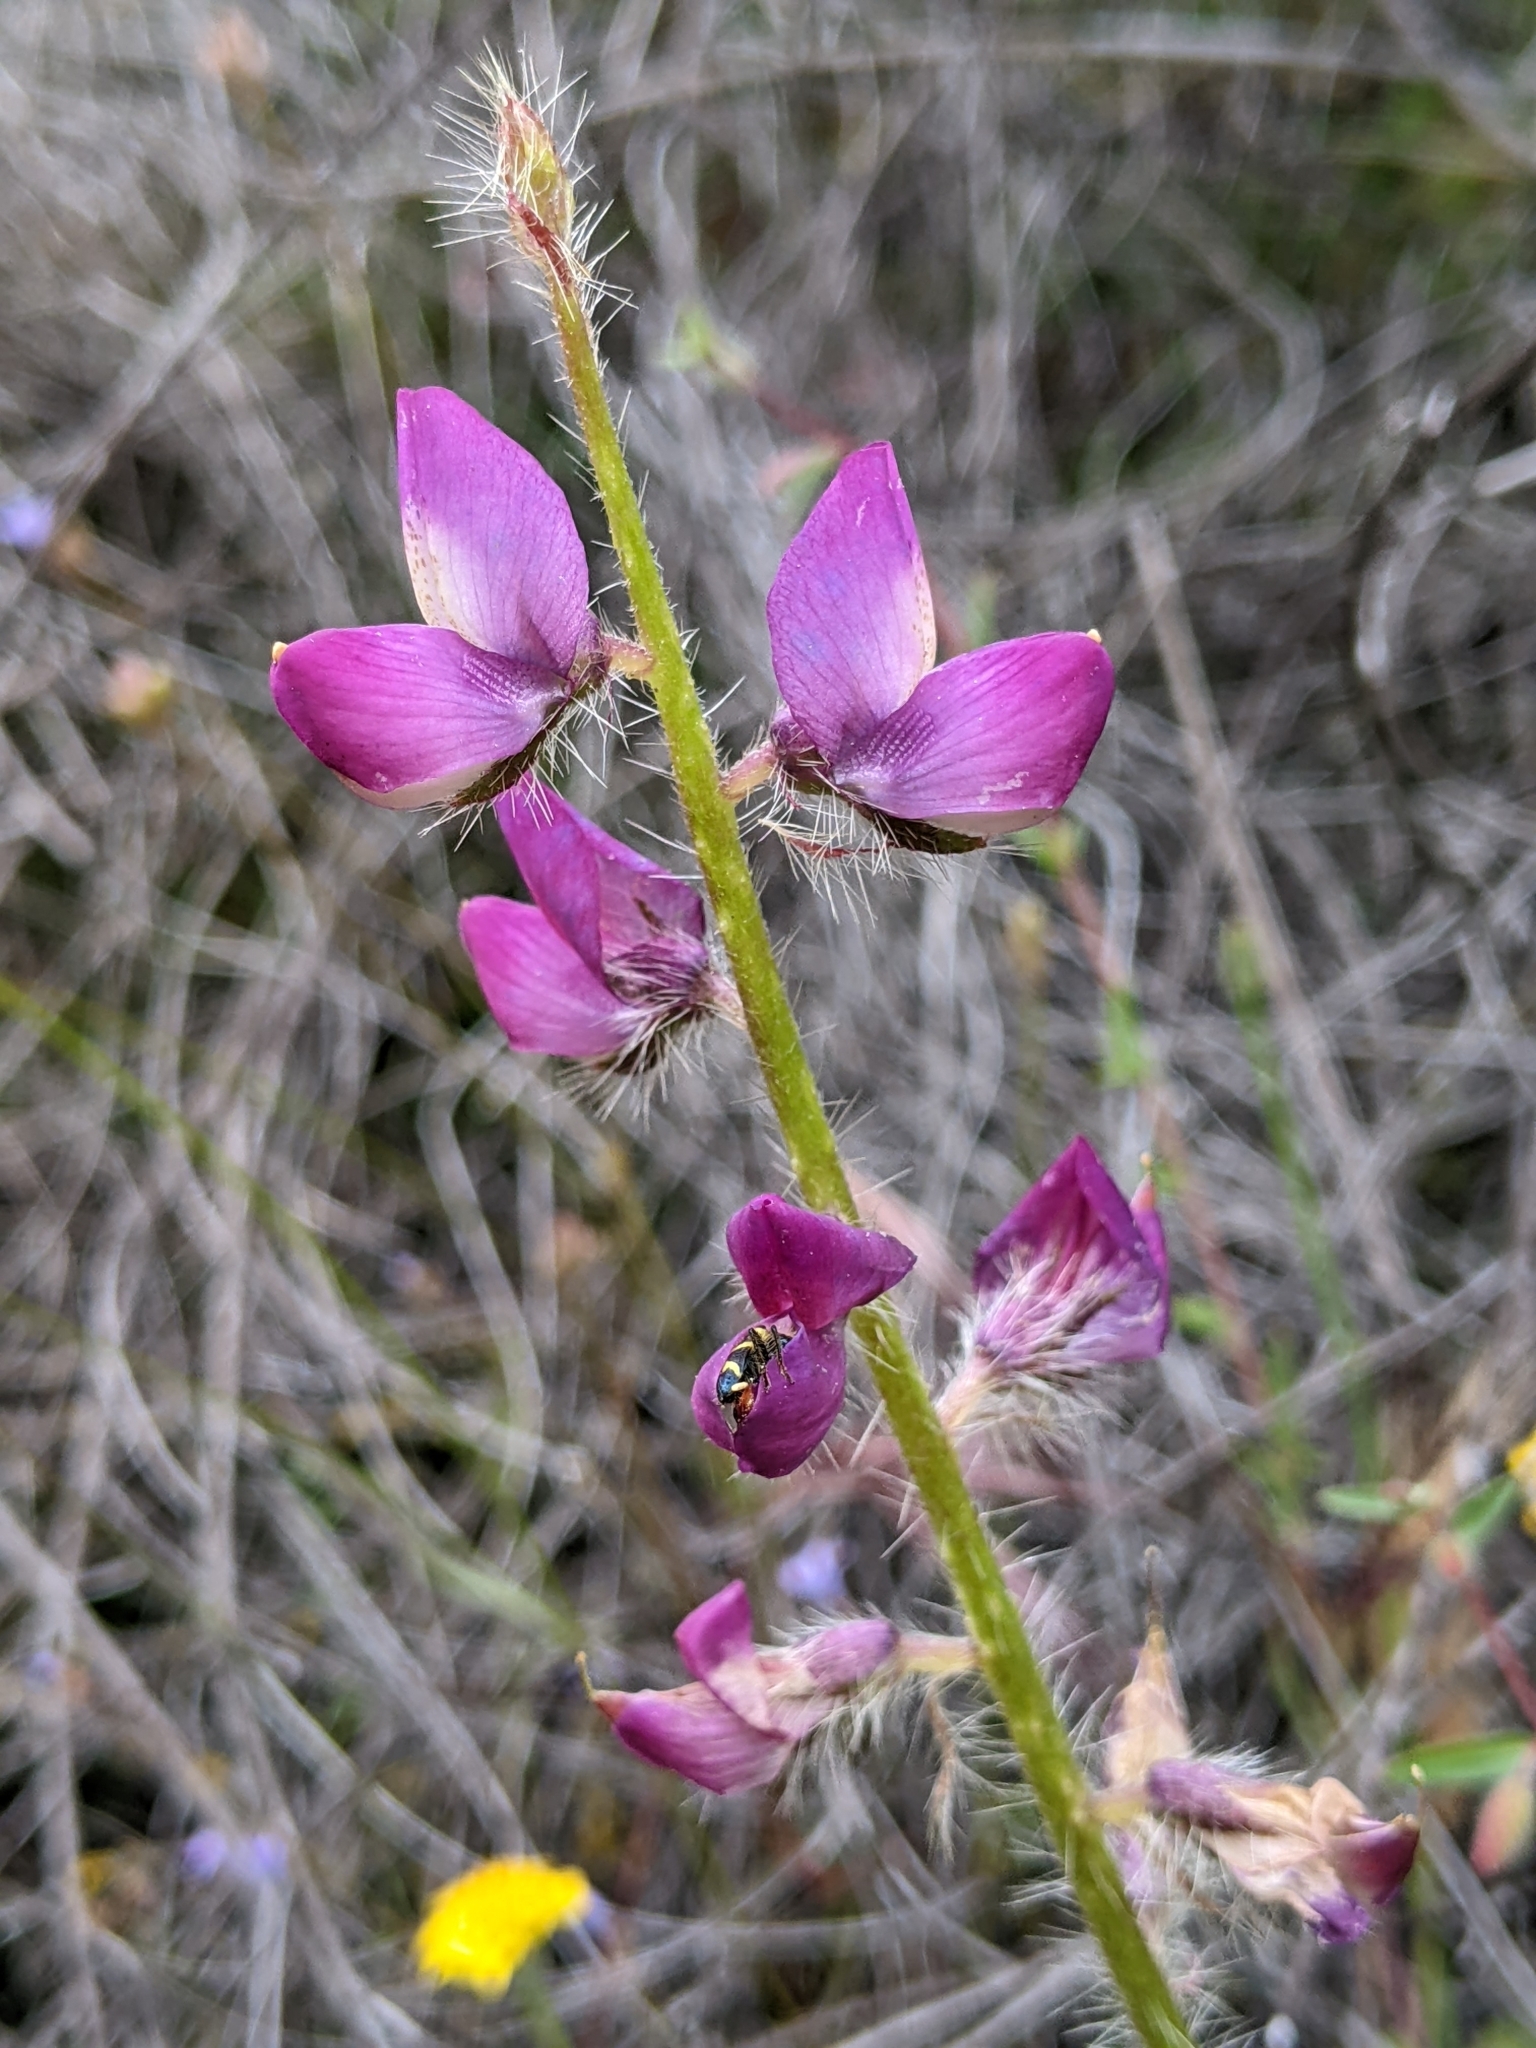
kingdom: Plantae
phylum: Tracheophyta
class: Magnoliopsida
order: Fabales
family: Fabaceae
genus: Lupinus
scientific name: Lupinus hirsutissimus
